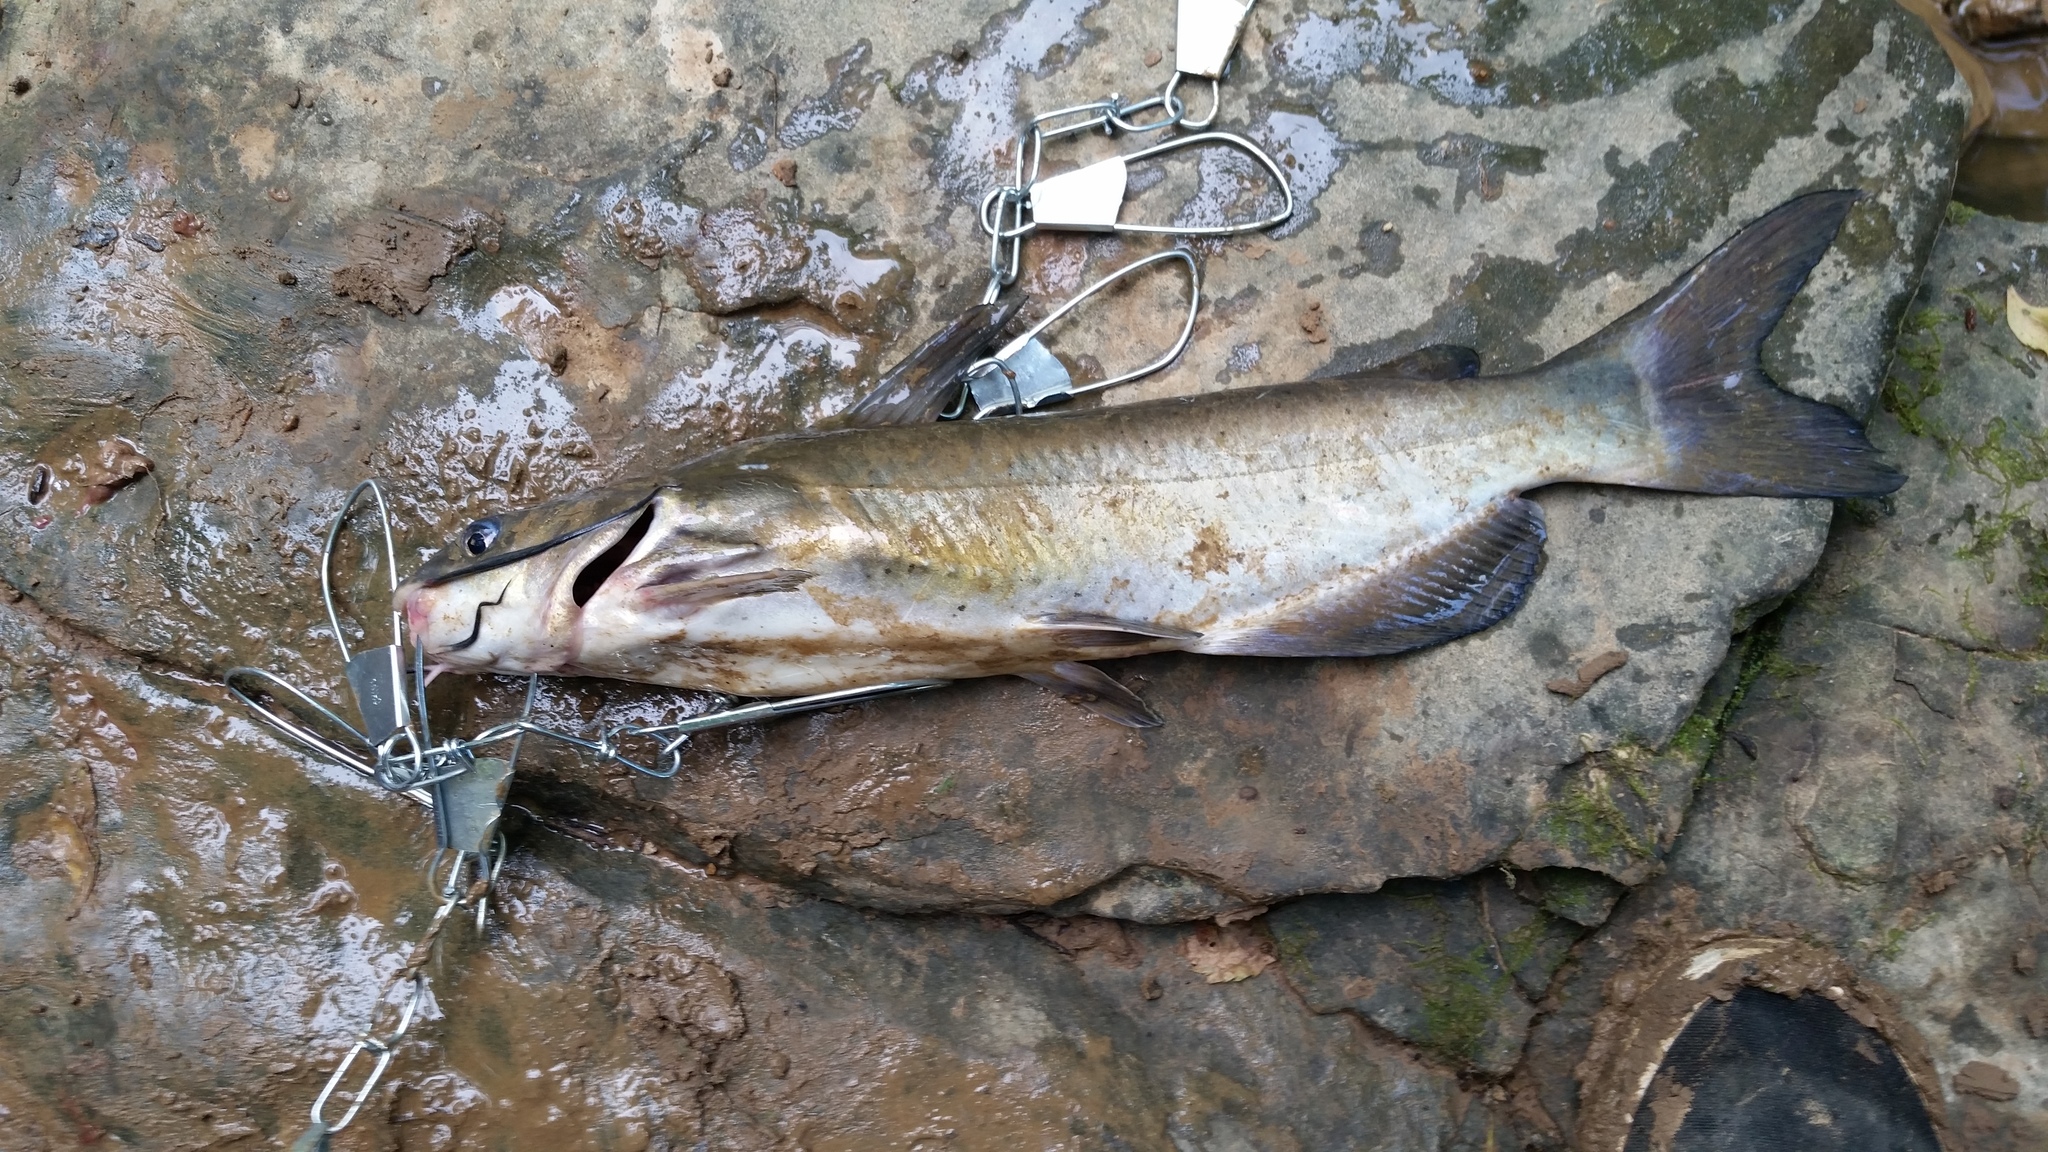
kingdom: Animalia
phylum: Chordata
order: Siluriformes
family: Ictaluridae
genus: Ictalurus
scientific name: Ictalurus punctatus
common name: Channel catfish
